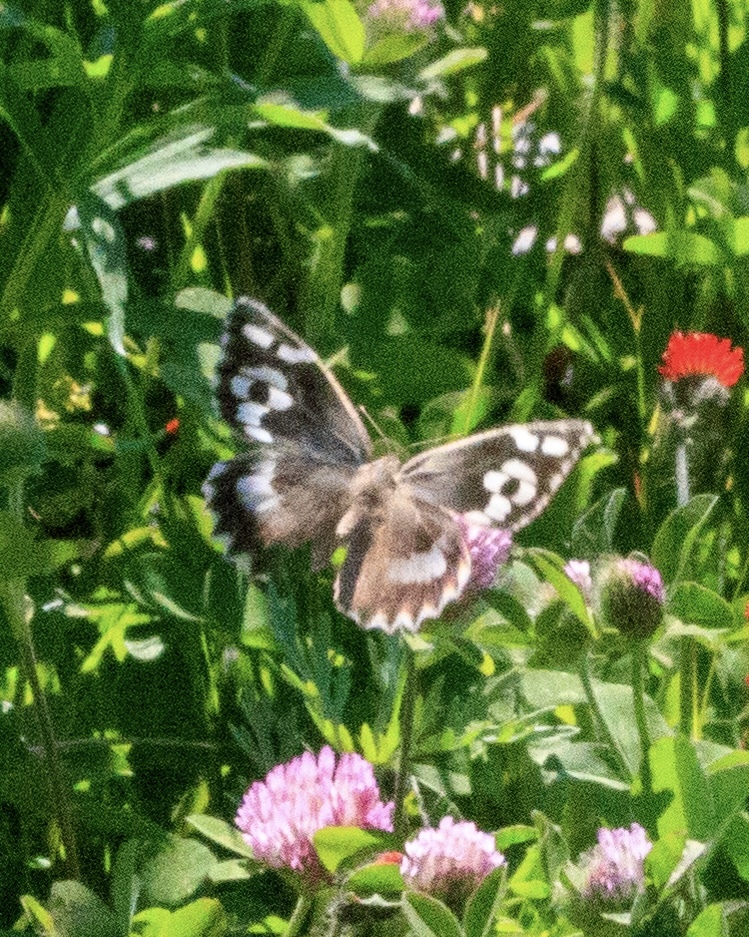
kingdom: Animalia
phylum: Arthropoda
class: Insecta
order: Lepidoptera
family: Nymphalidae
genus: Satyrus
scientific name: Satyrus Chazara enervata
